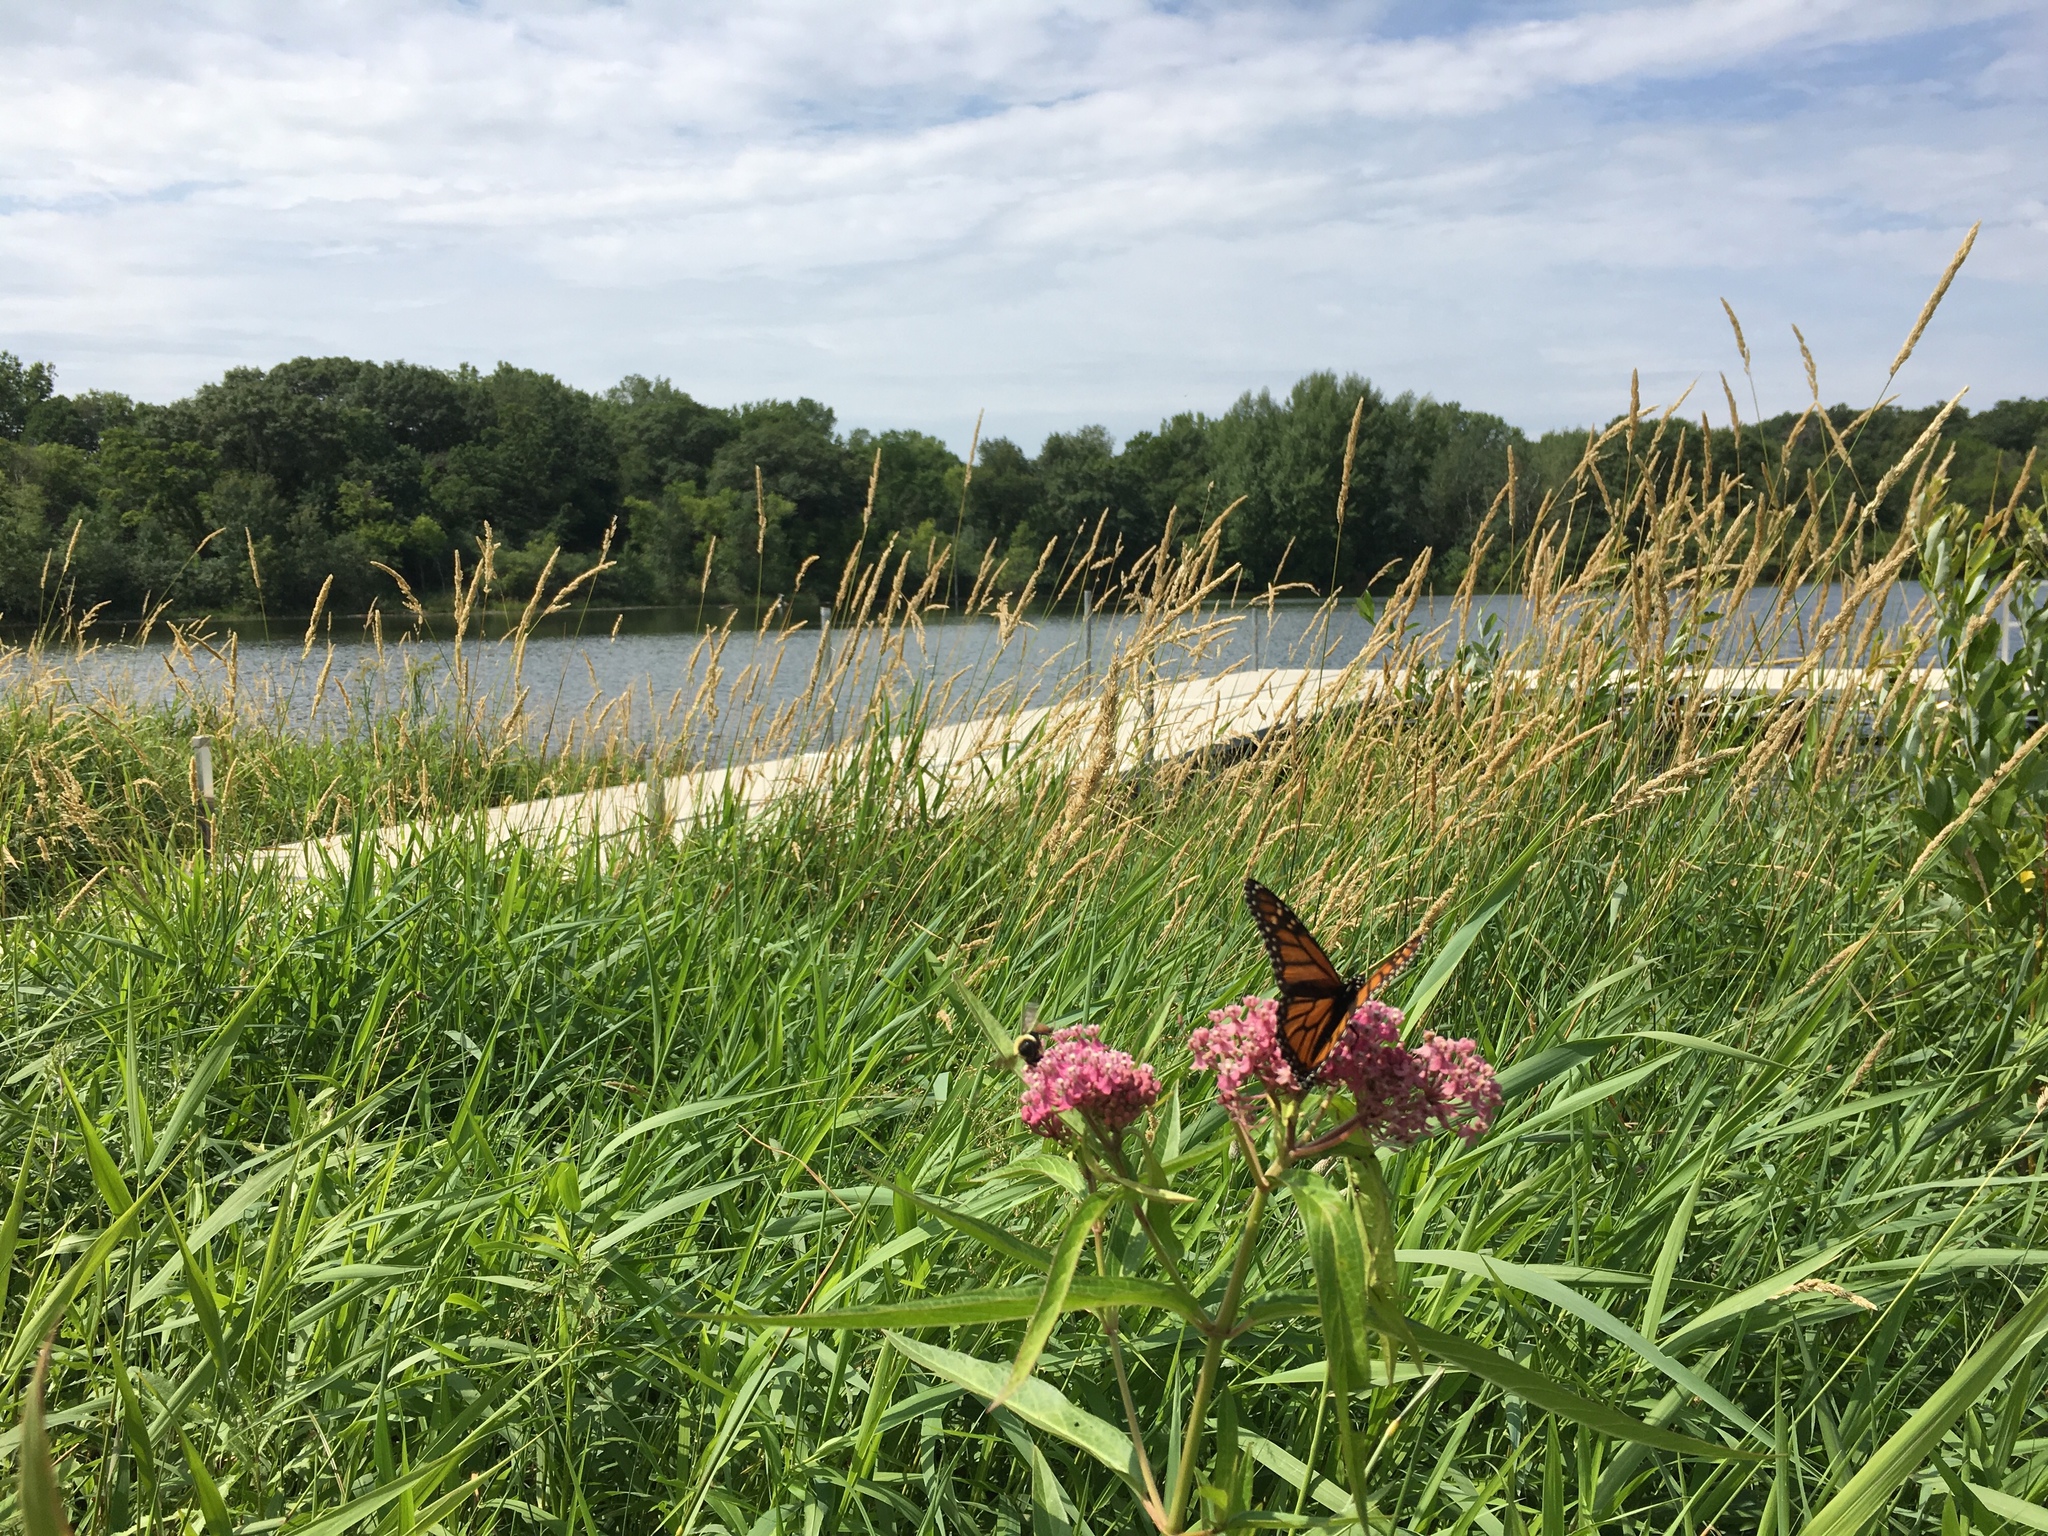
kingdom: Animalia
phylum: Arthropoda
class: Insecta
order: Lepidoptera
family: Nymphalidae
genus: Danaus
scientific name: Danaus plexippus
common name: Monarch
